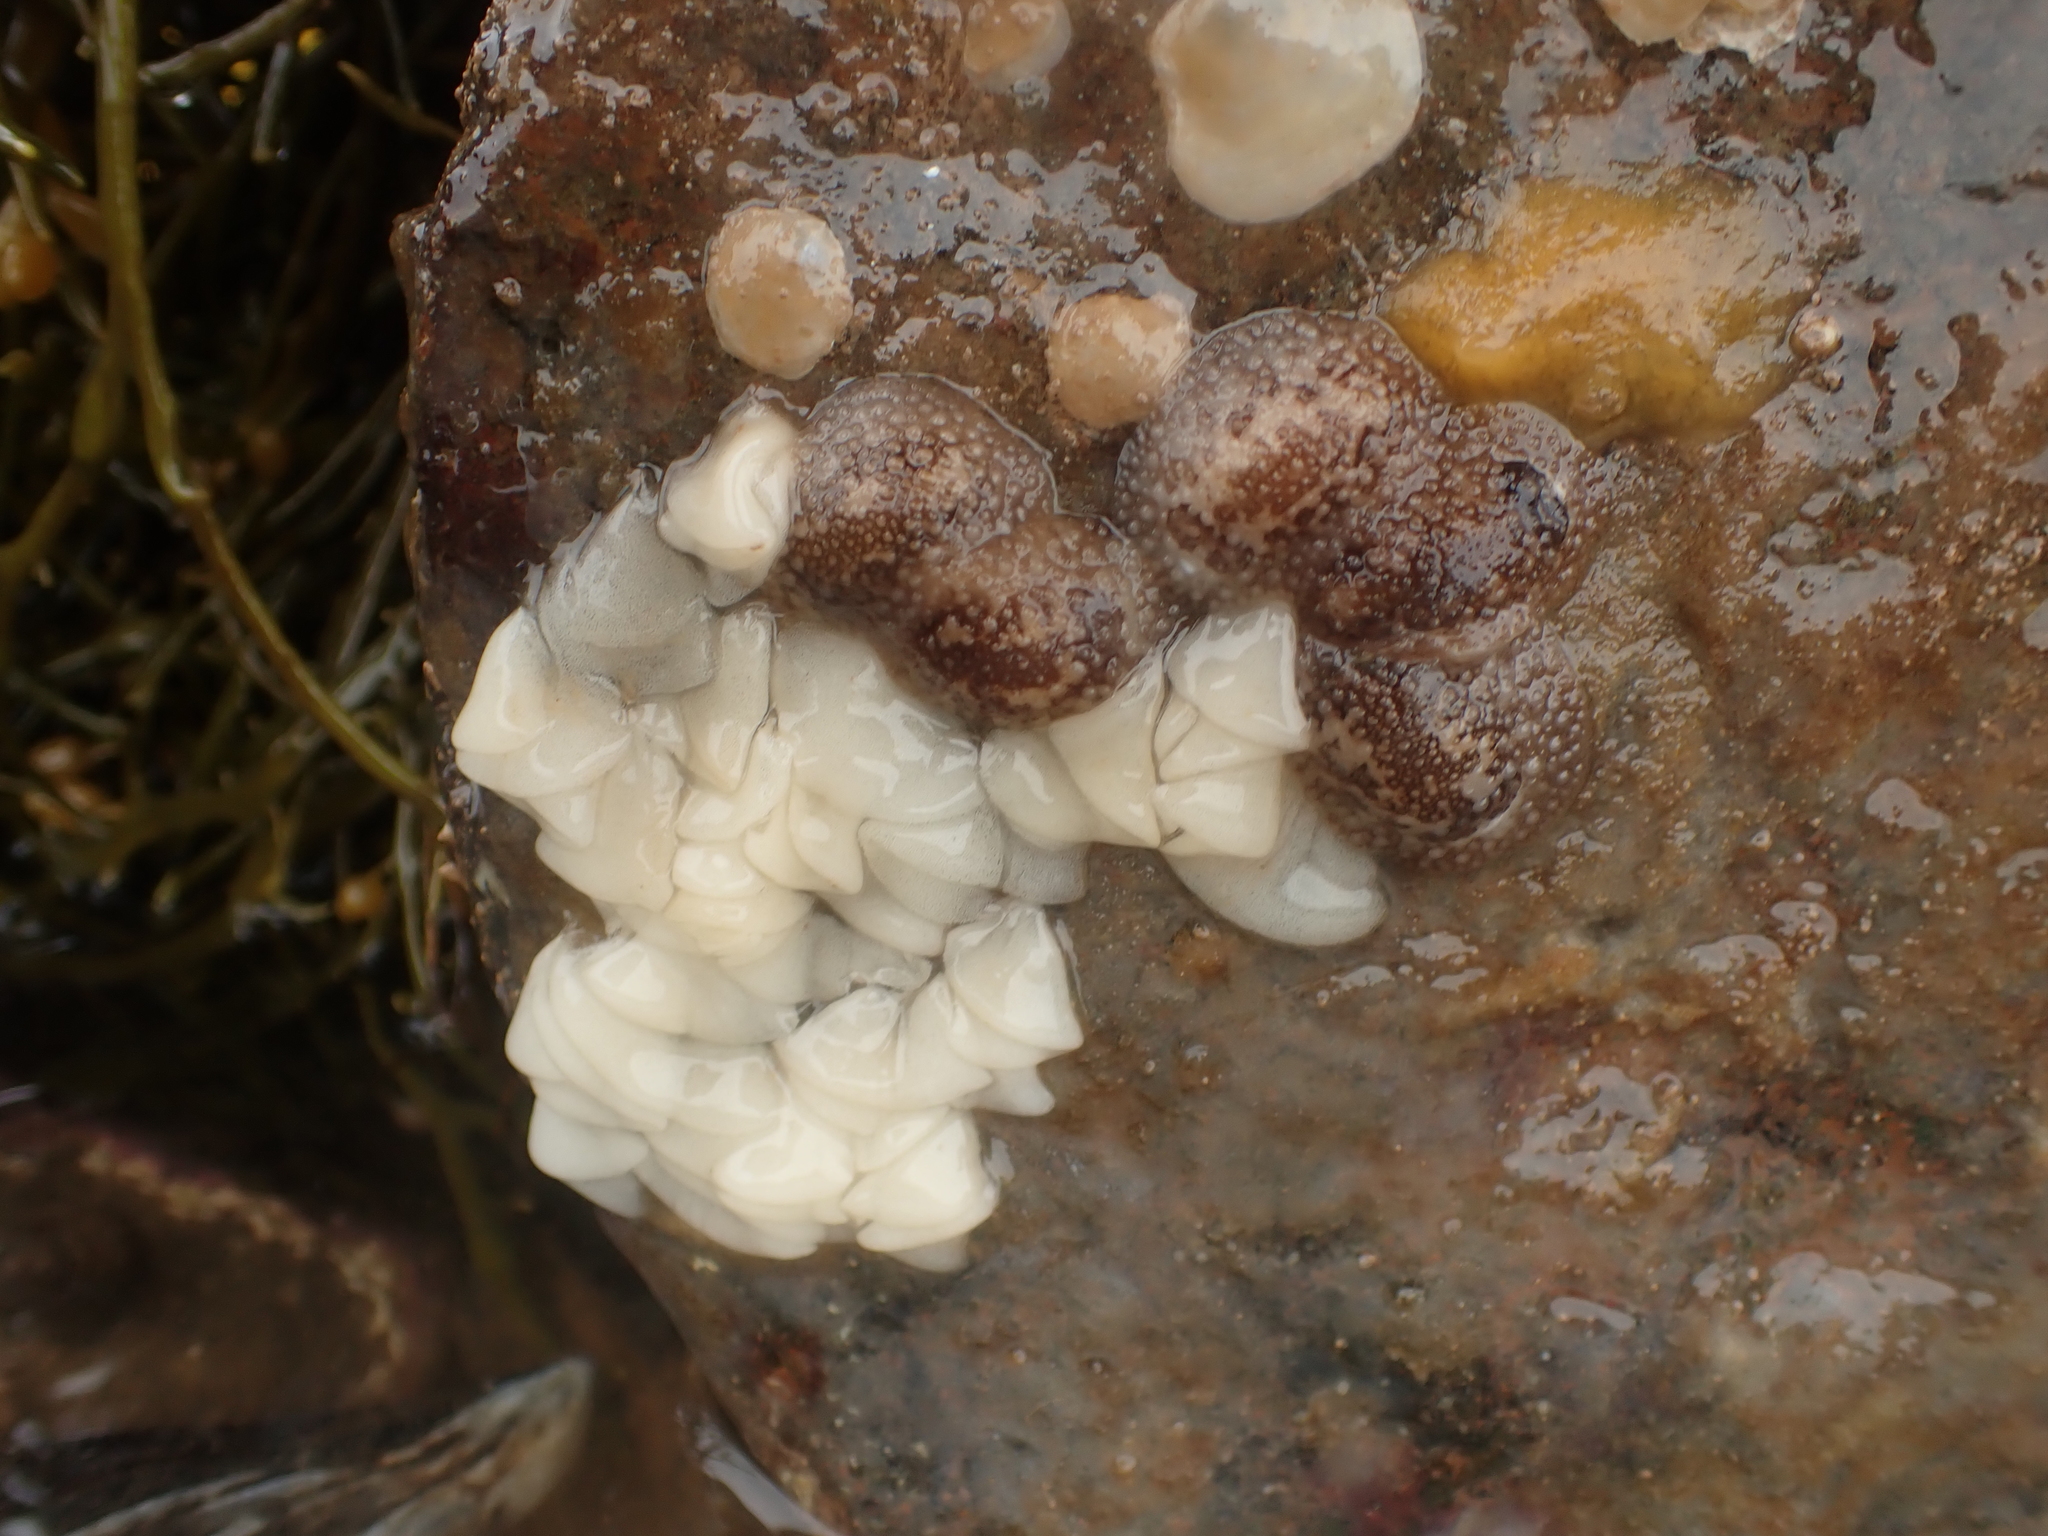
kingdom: Animalia
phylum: Mollusca
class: Gastropoda
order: Nudibranchia
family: Onchidorididae
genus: Onchidoris
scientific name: Onchidoris bilamellata
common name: Barnacle-eating onchidoris
